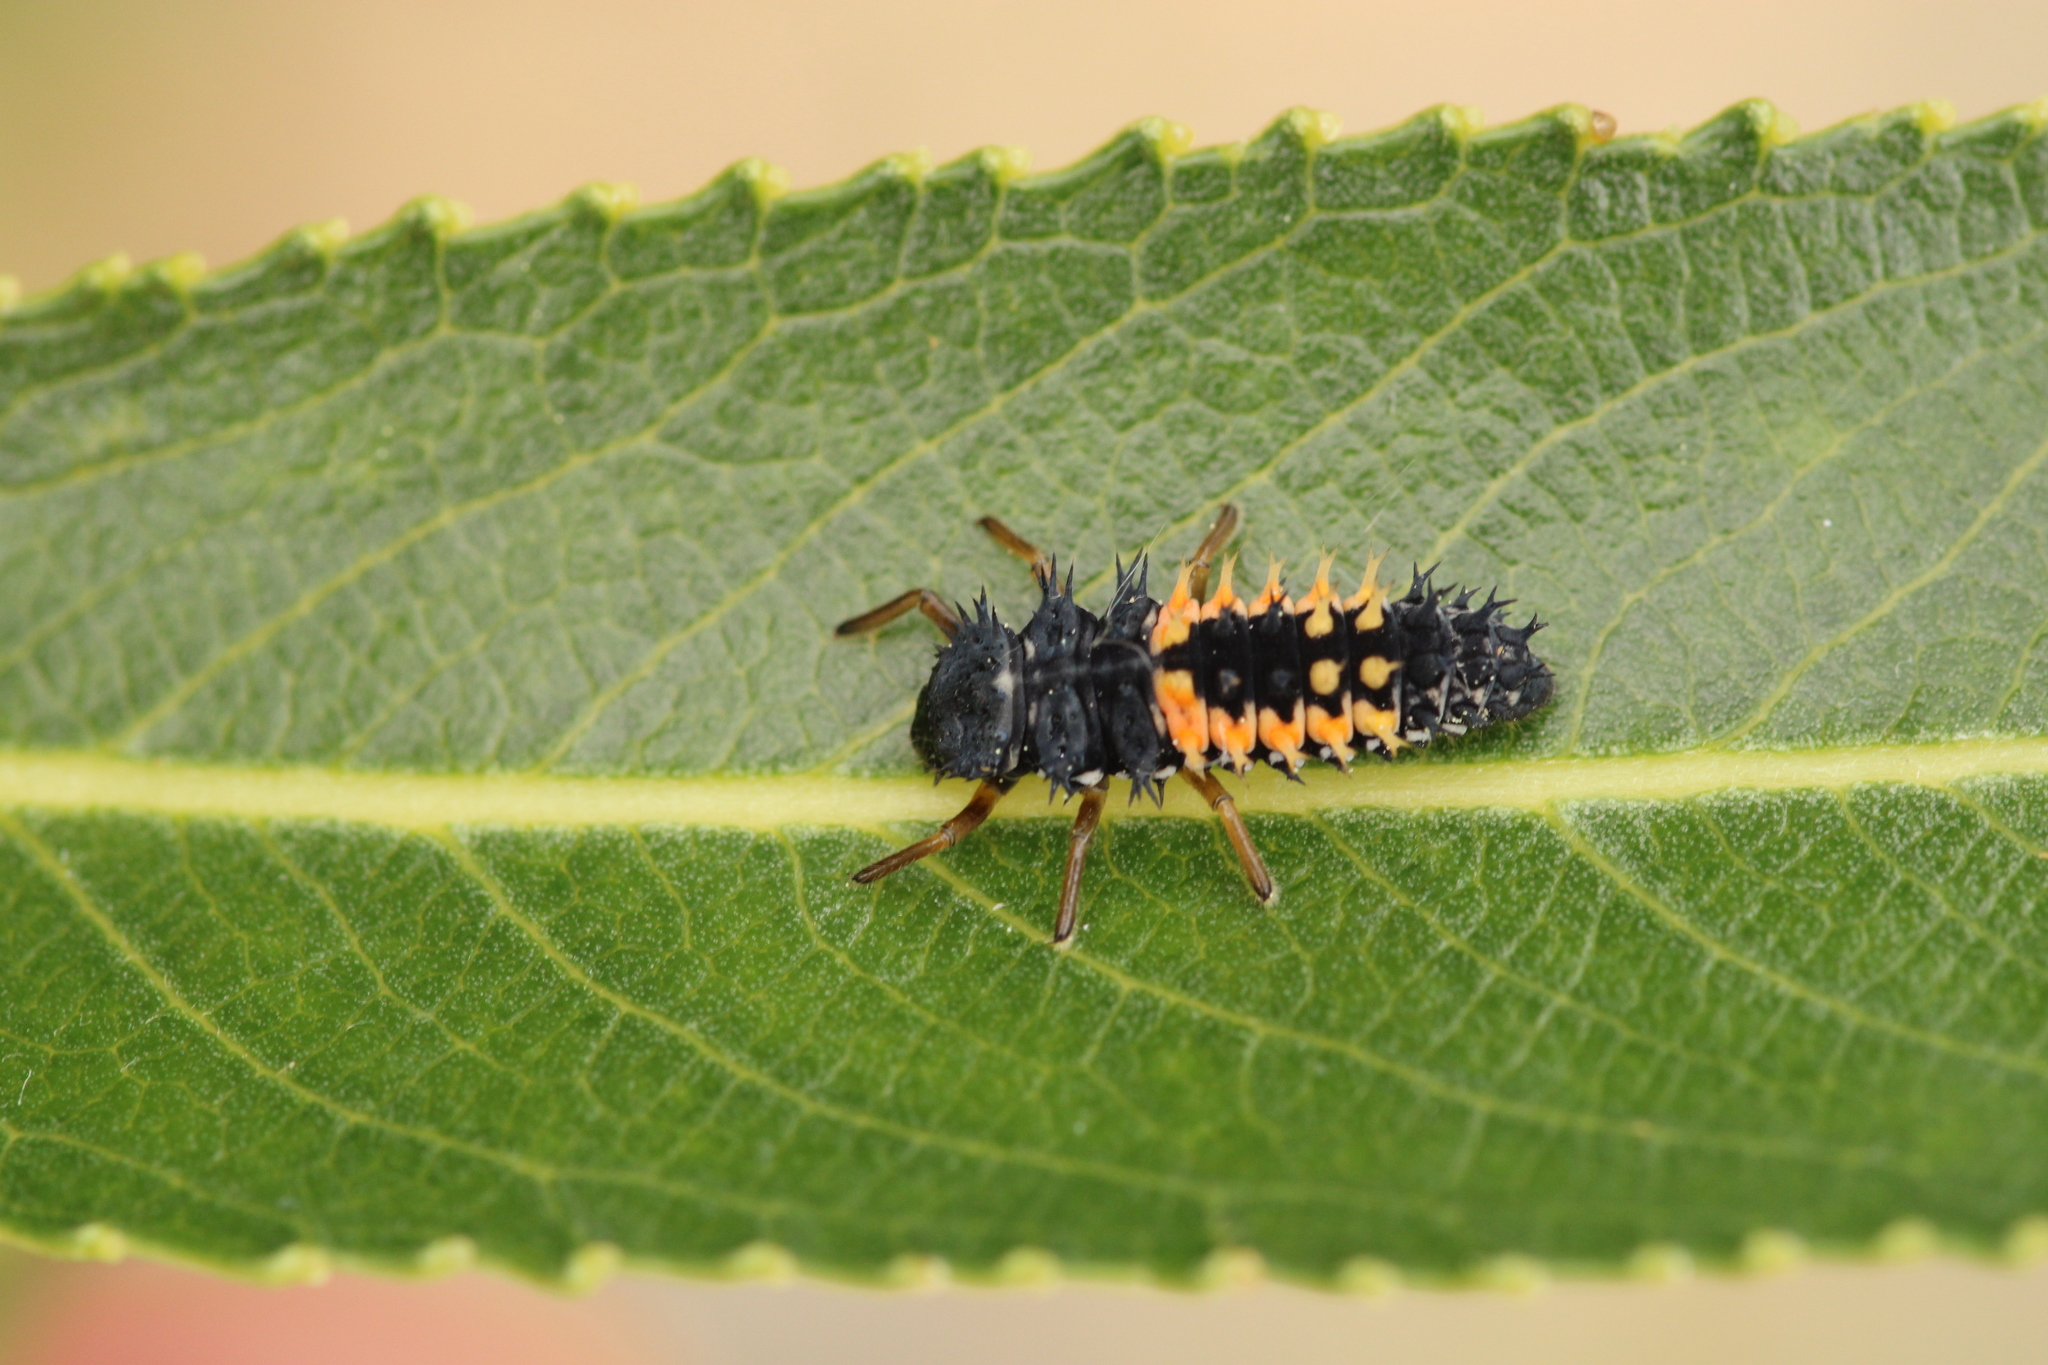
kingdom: Animalia
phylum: Arthropoda
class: Insecta
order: Coleoptera
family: Coccinellidae
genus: Harmonia
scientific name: Harmonia axyridis
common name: Harlequin ladybird
